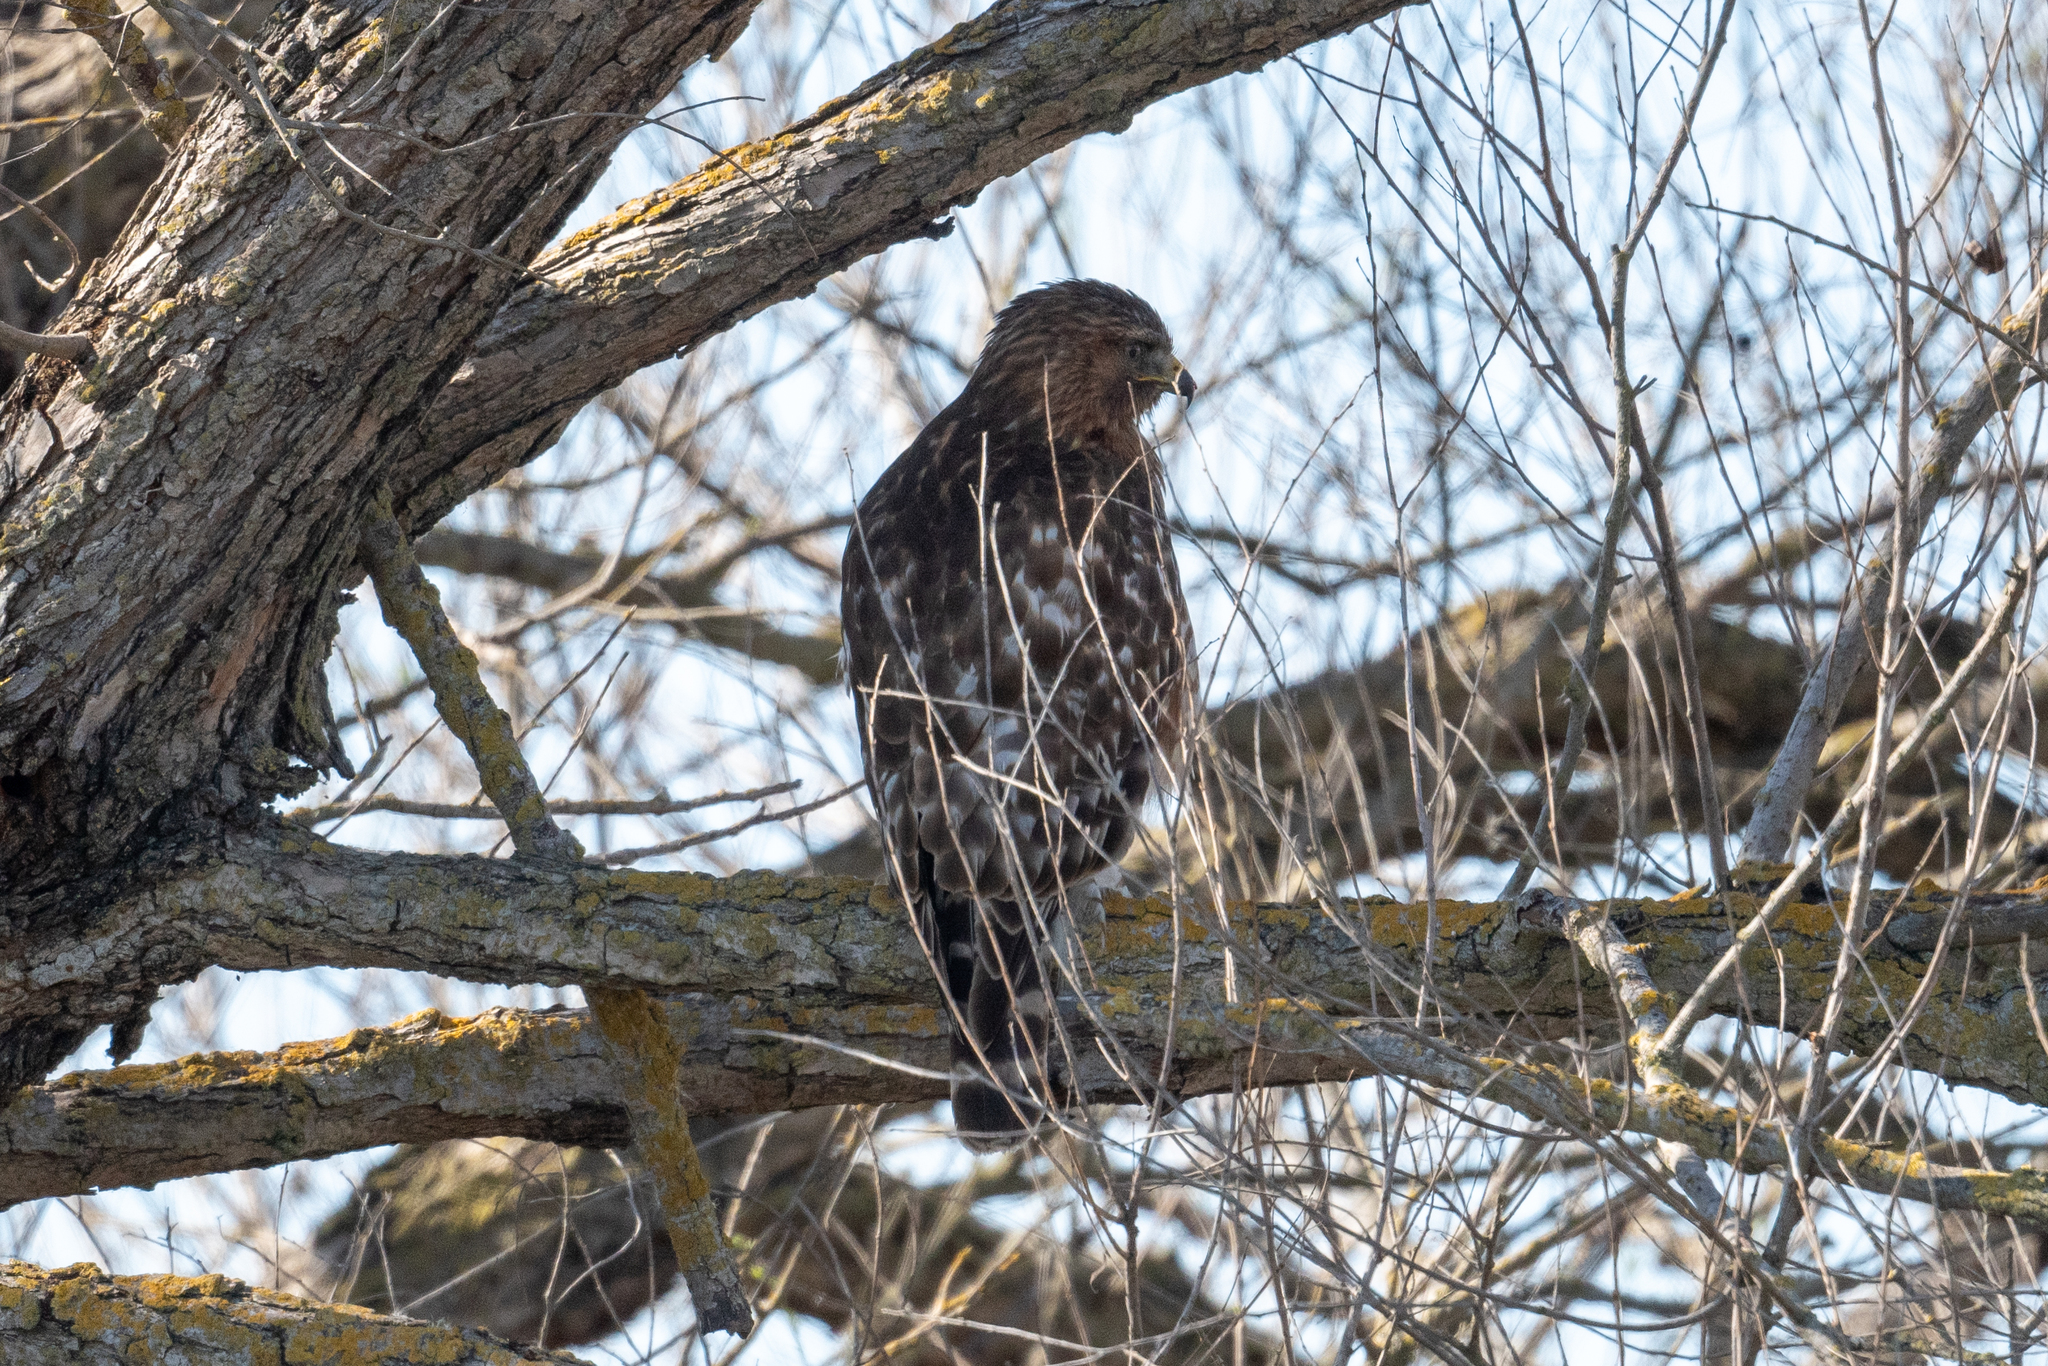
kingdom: Animalia
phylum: Chordata
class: Aves
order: Accipitriformes
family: Accipitridae
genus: Buteo
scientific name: Buteo lineatus
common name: Red-shouldered hawk
